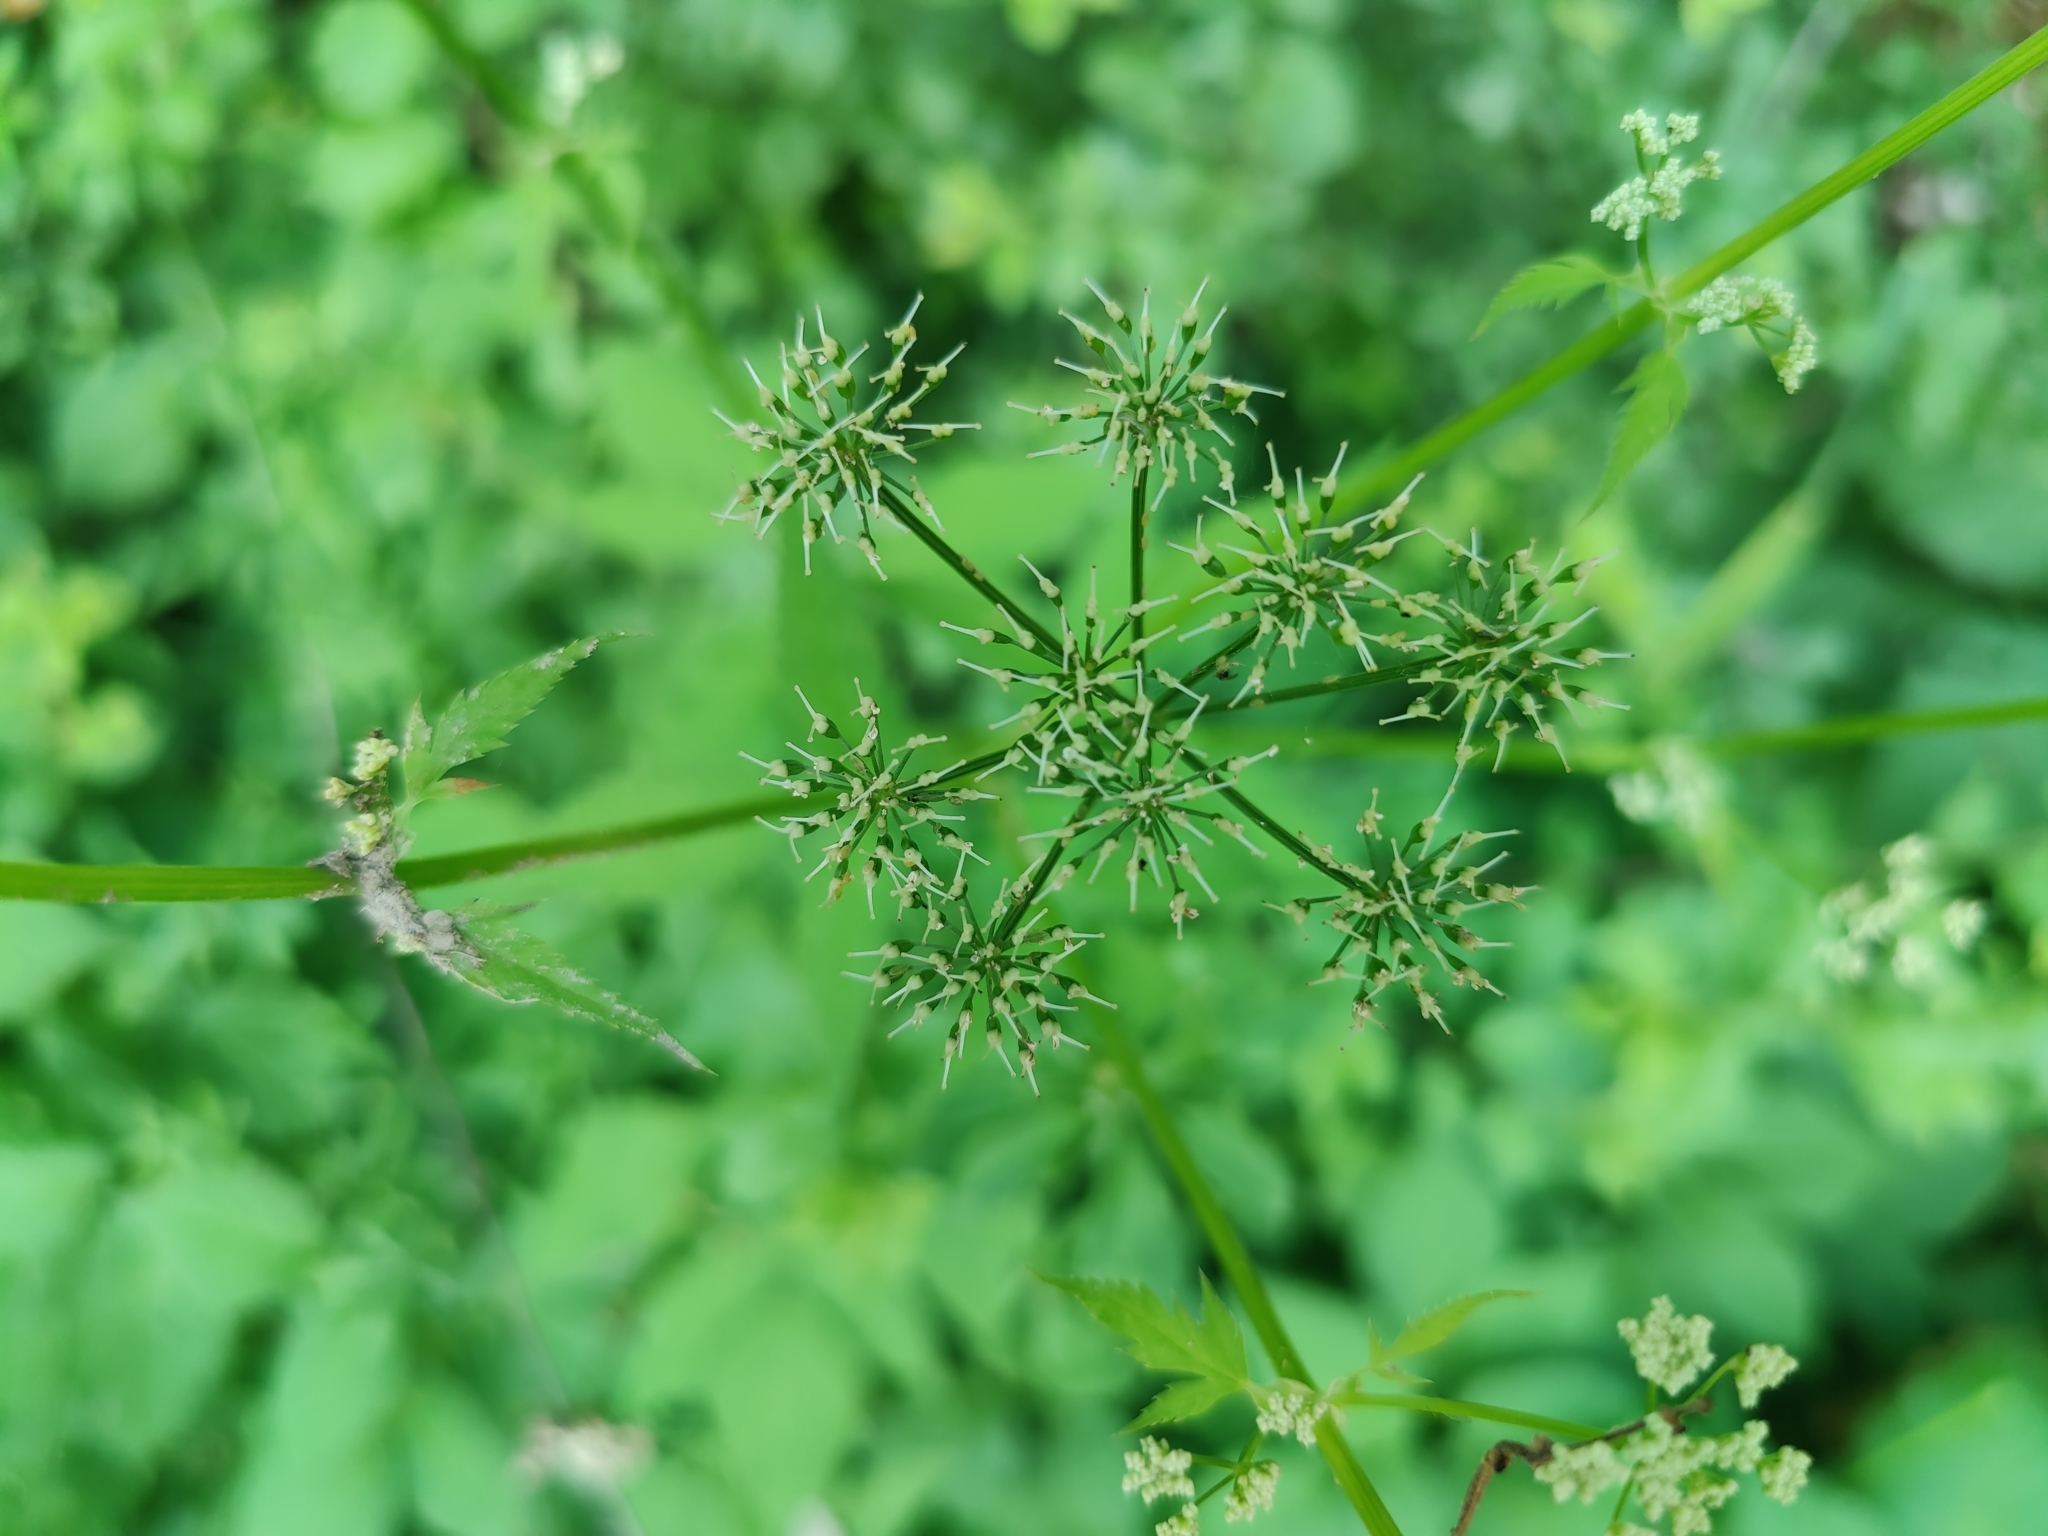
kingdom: Plantae
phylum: Tracheophyta
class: Magnoliopsida
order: Apiales
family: Apiaceae
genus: Aegopodium
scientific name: Aegopodium podagraria
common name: Ground-elder
